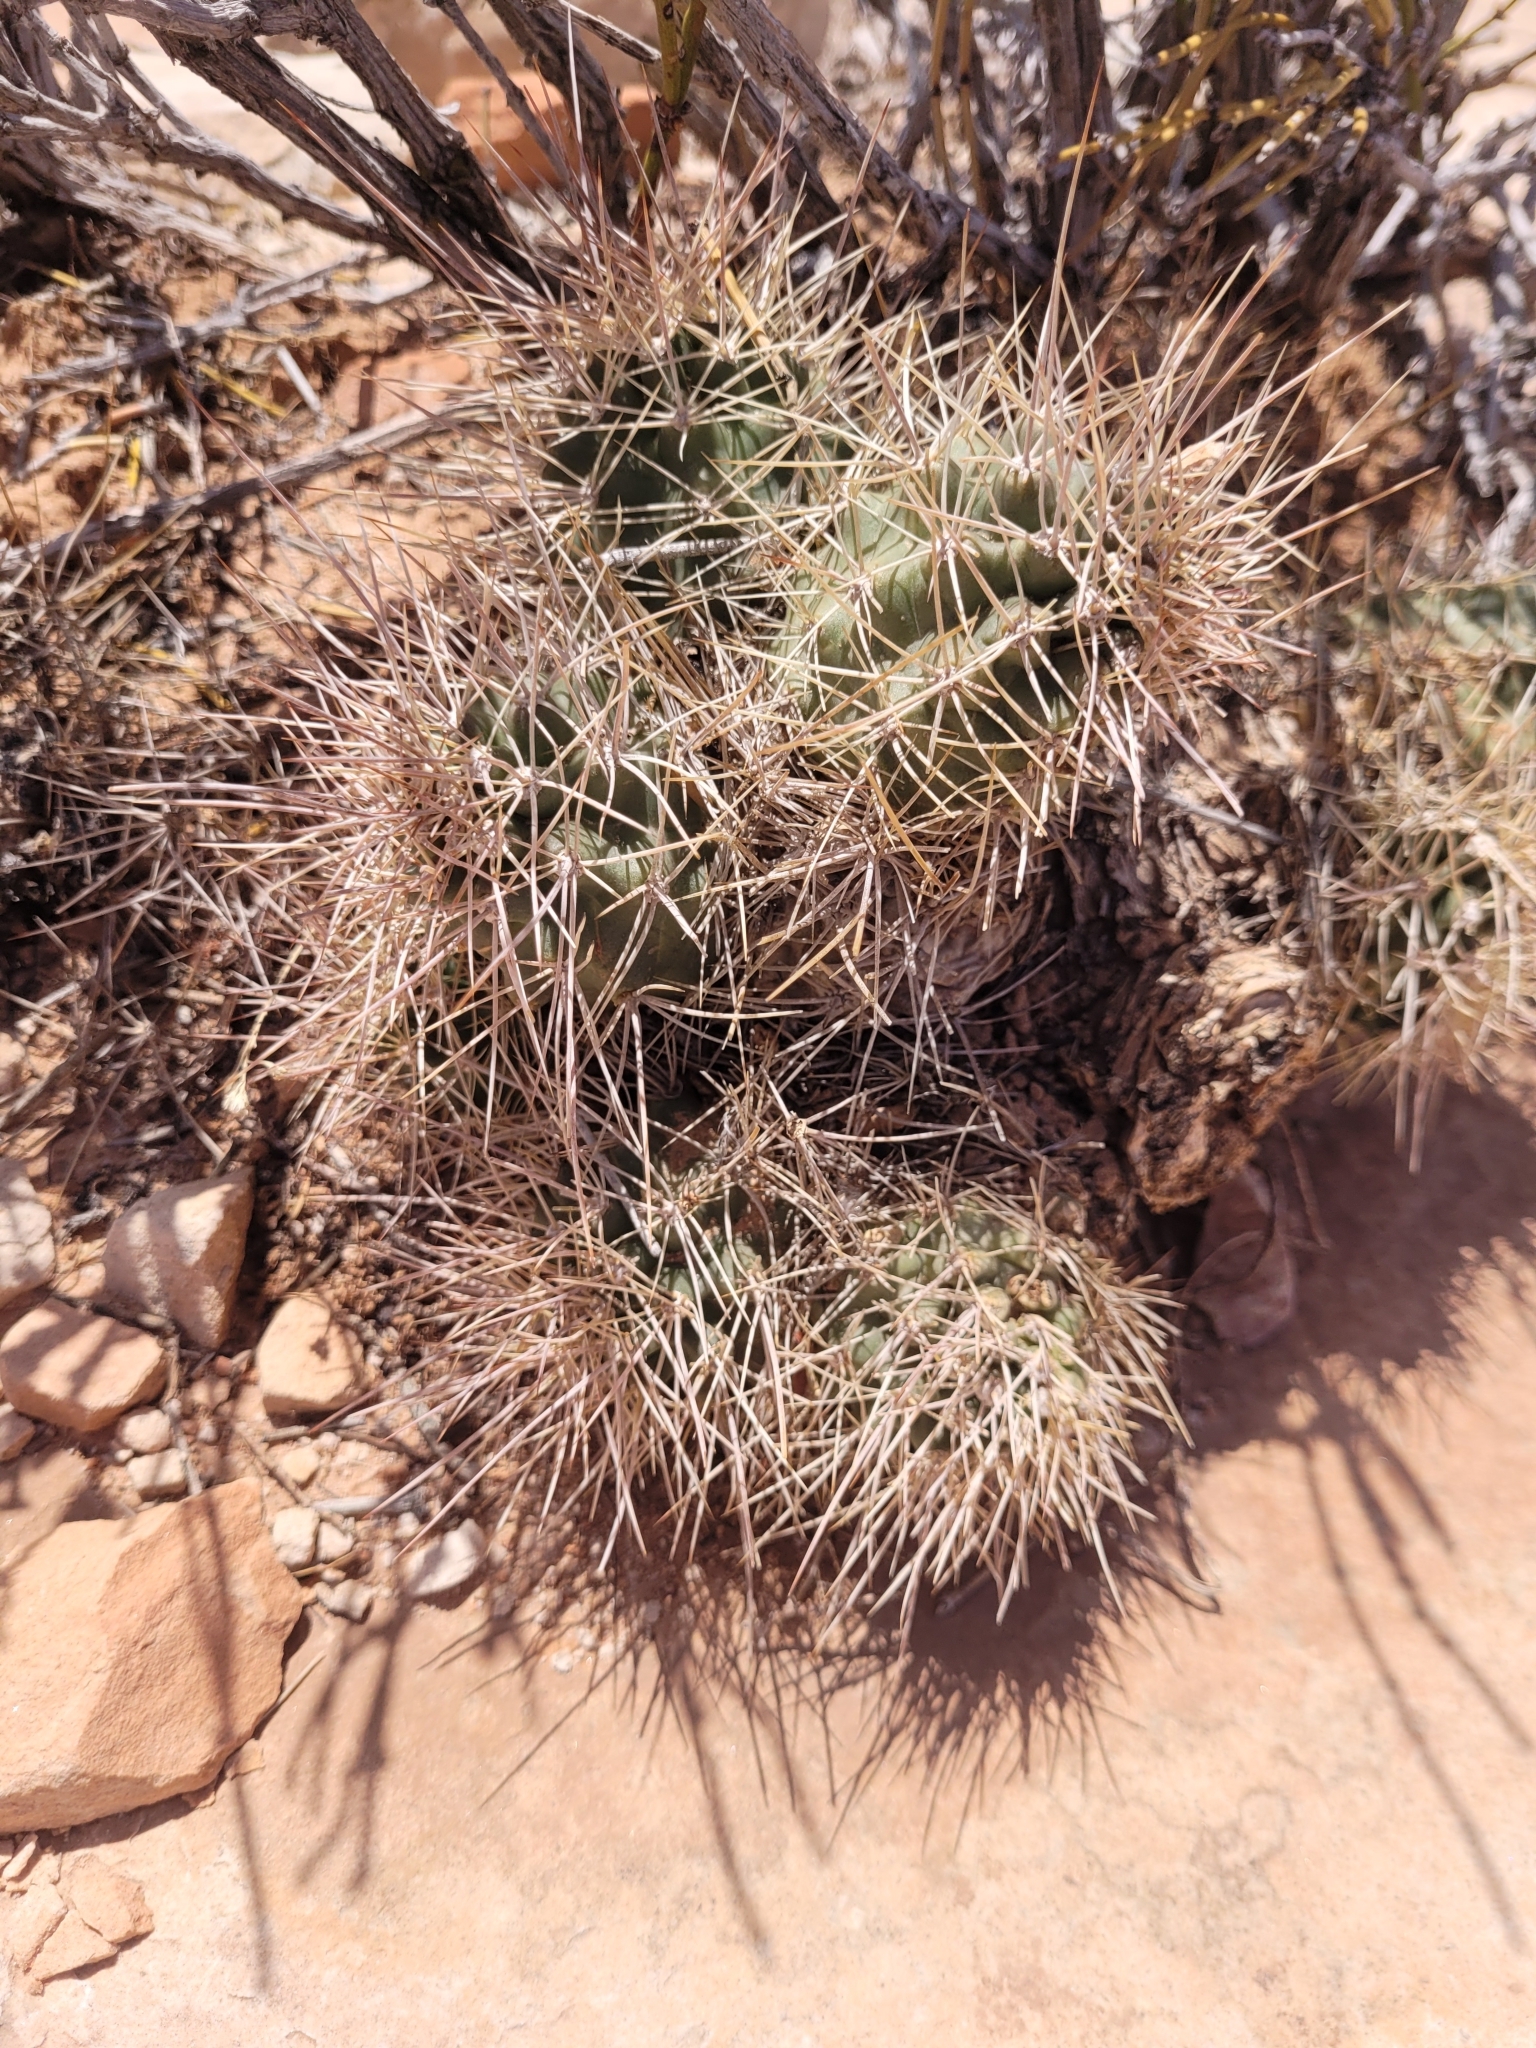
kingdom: Plantae
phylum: Tracheophyta
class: Magnoliopsida
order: Caryophyllales
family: Cactaceae
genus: Echinocereus
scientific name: Echinocereus triglochidiatus
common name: Claretcup hedgehog
